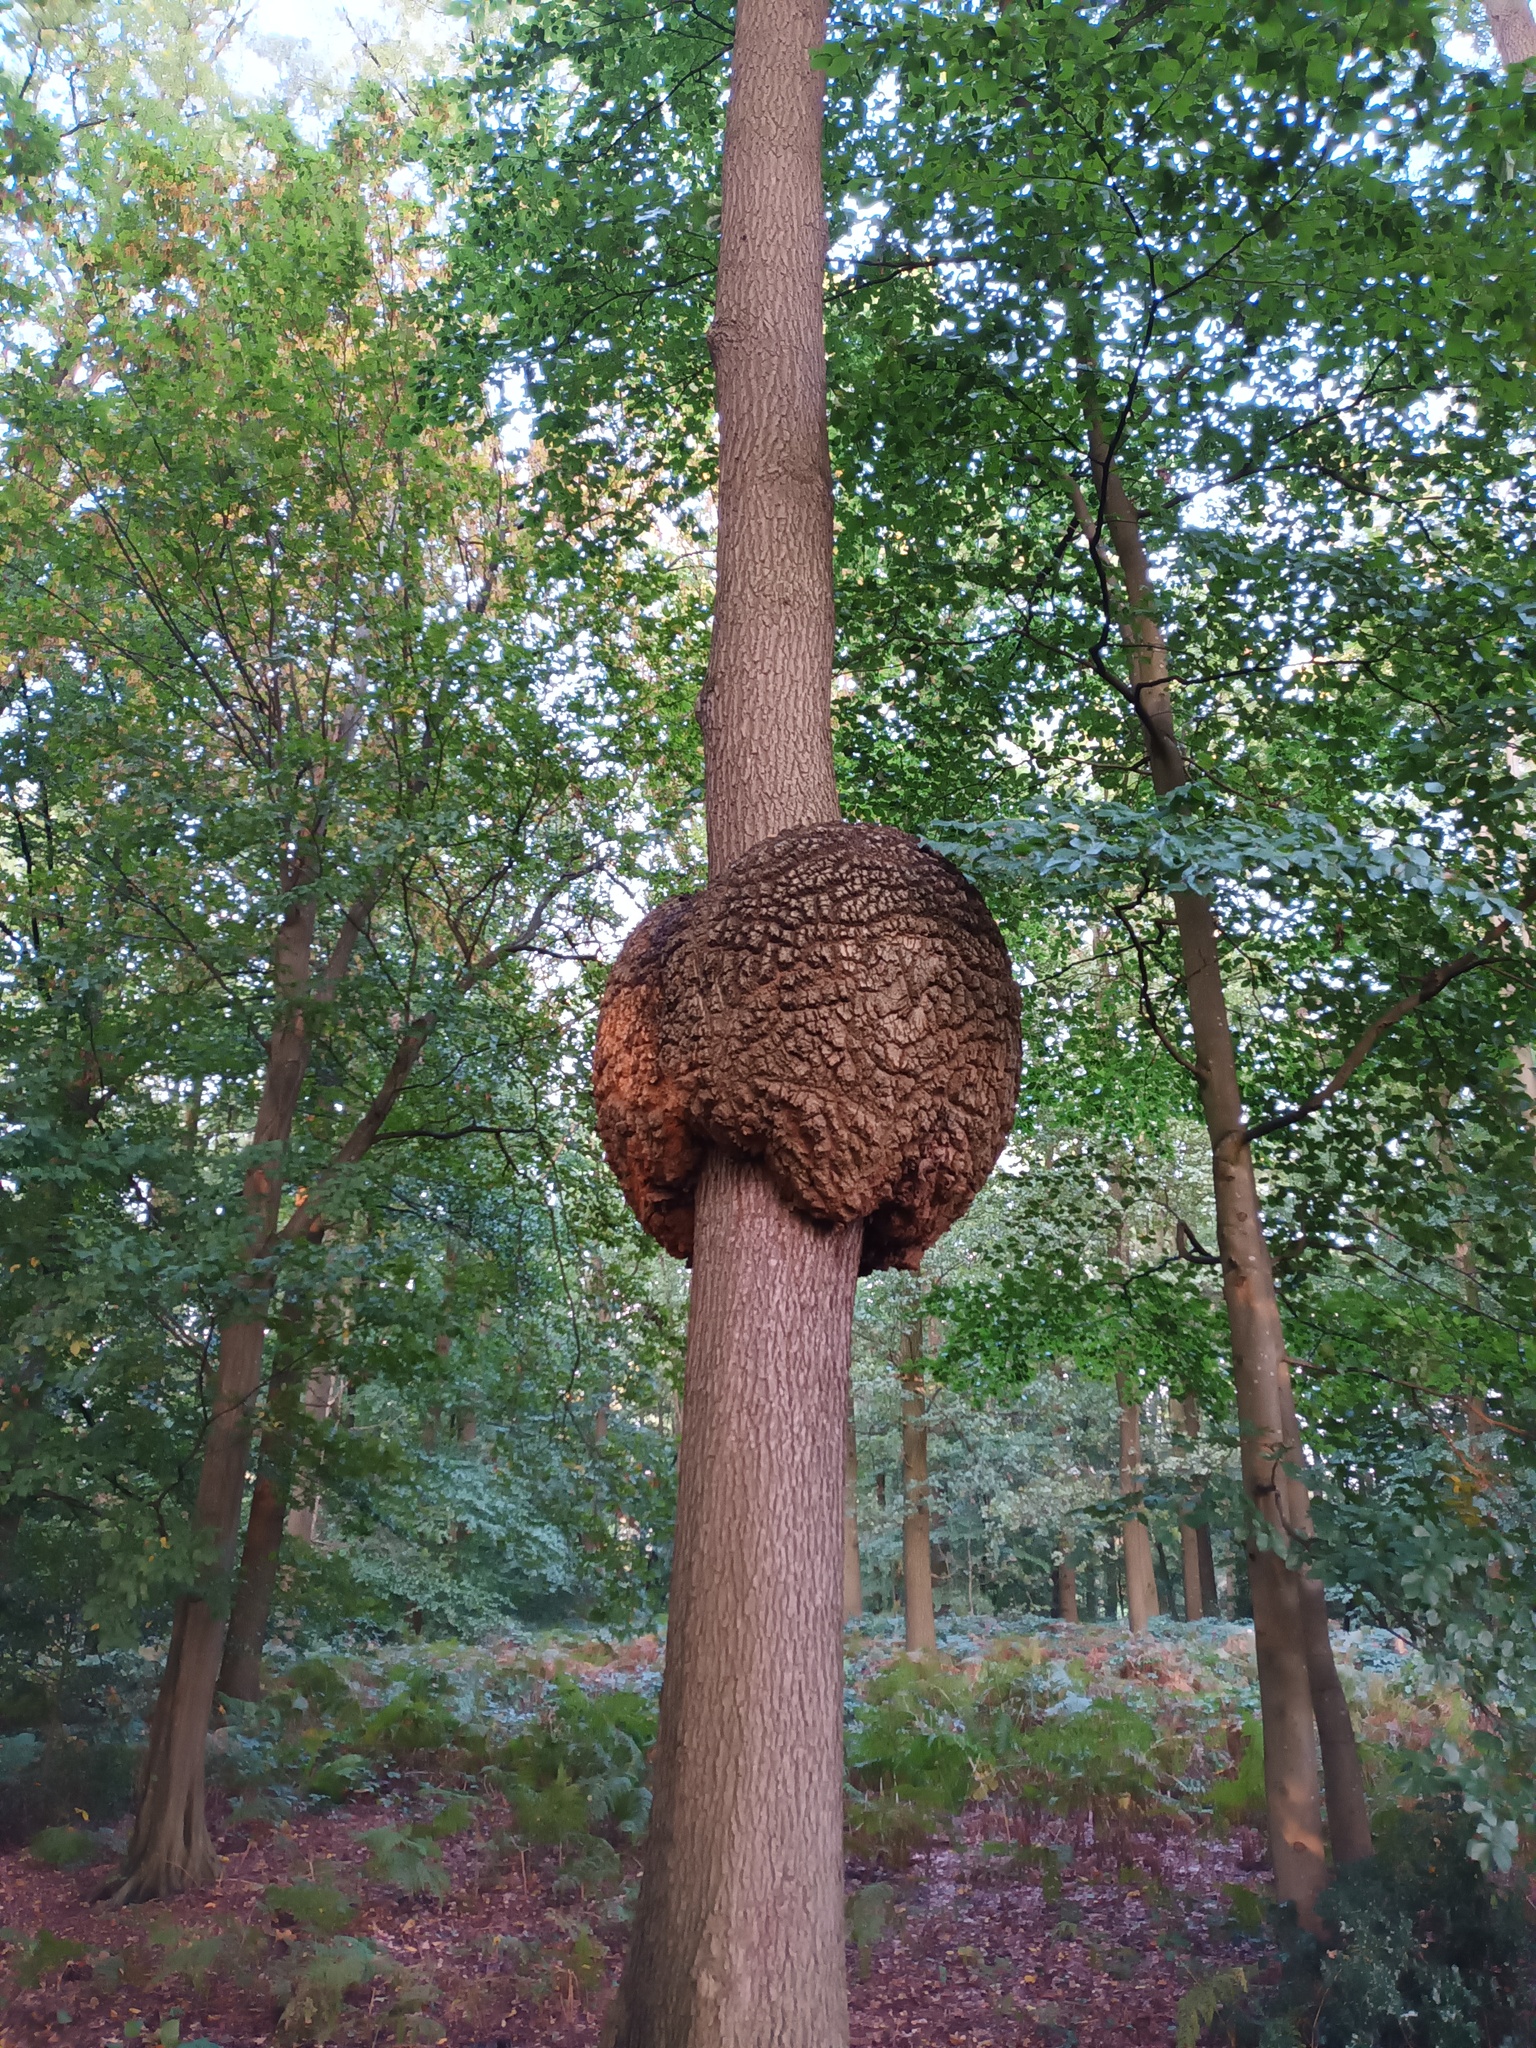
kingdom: Bacteria
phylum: Proteobacteria
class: Alphaproteobacteria
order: Rhizobiales
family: Rhizobiaceae
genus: Rhizobium
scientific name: Rhizobium Agrobacterium radiobacter
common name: Bacterial crown gall
